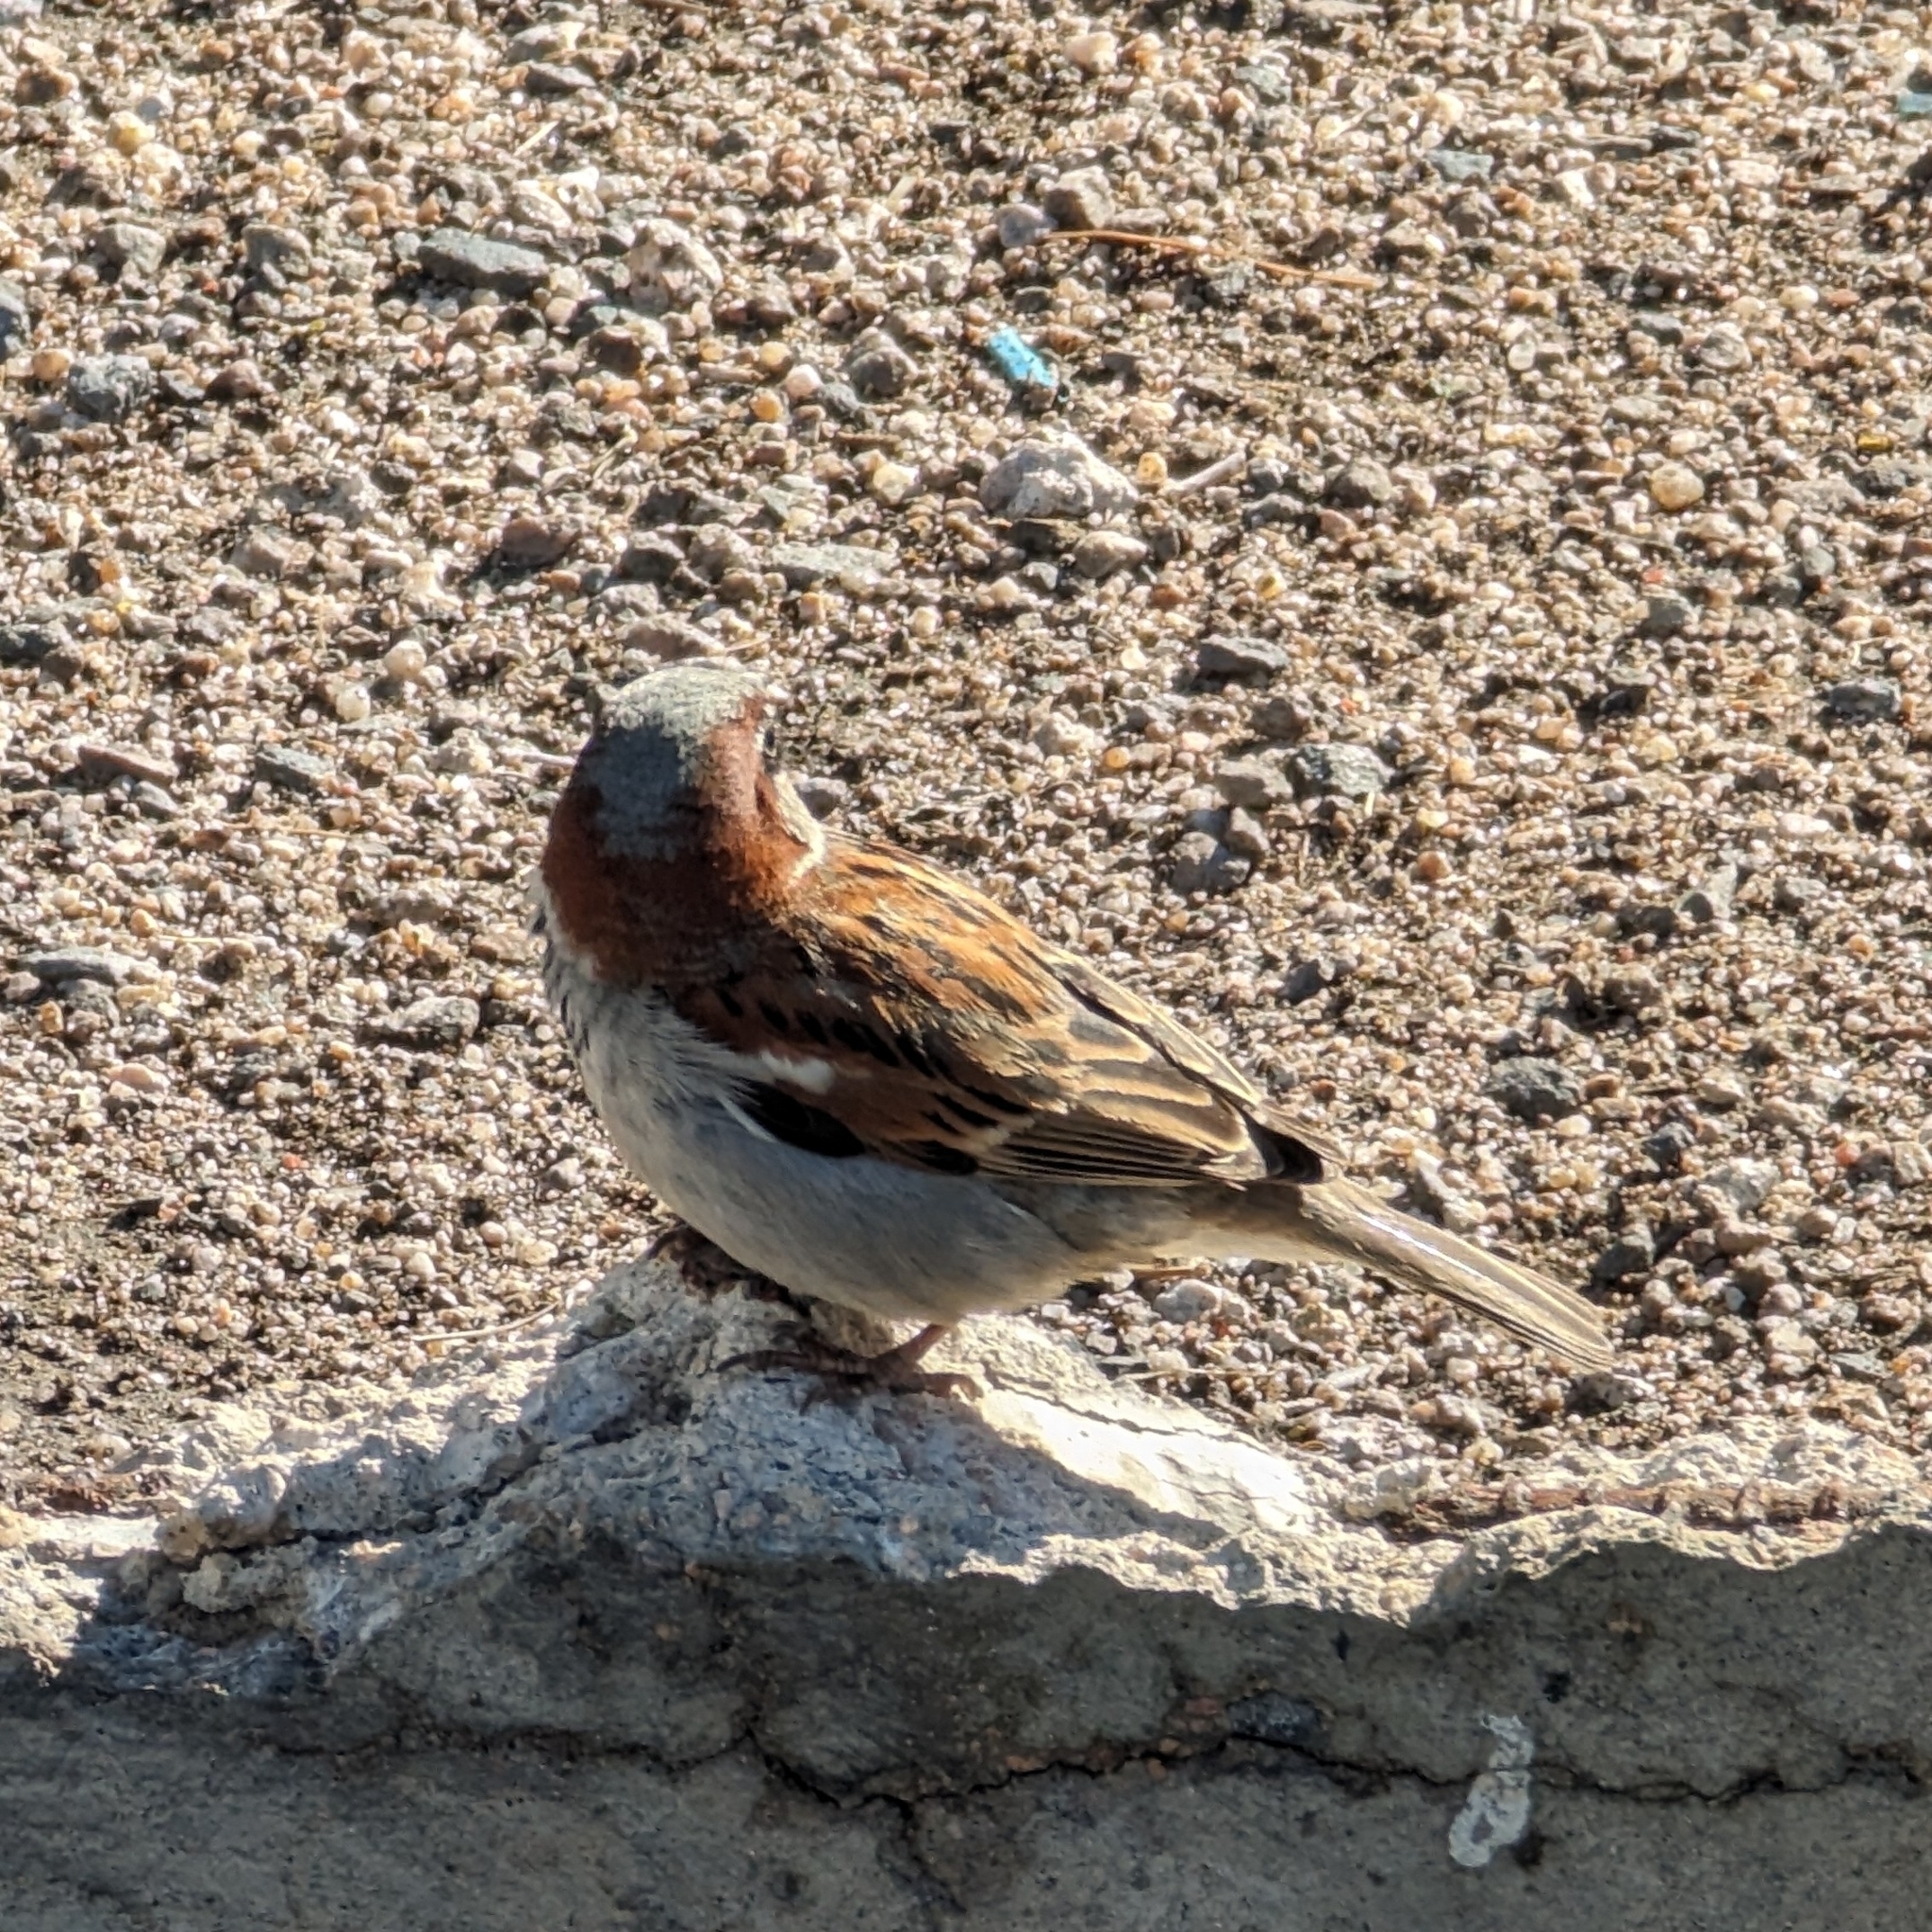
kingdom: Animalia
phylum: Chordata
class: Aves
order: Passeriformes
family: Passeridae
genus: Passer
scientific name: Passer domesticus
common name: House sparrow
